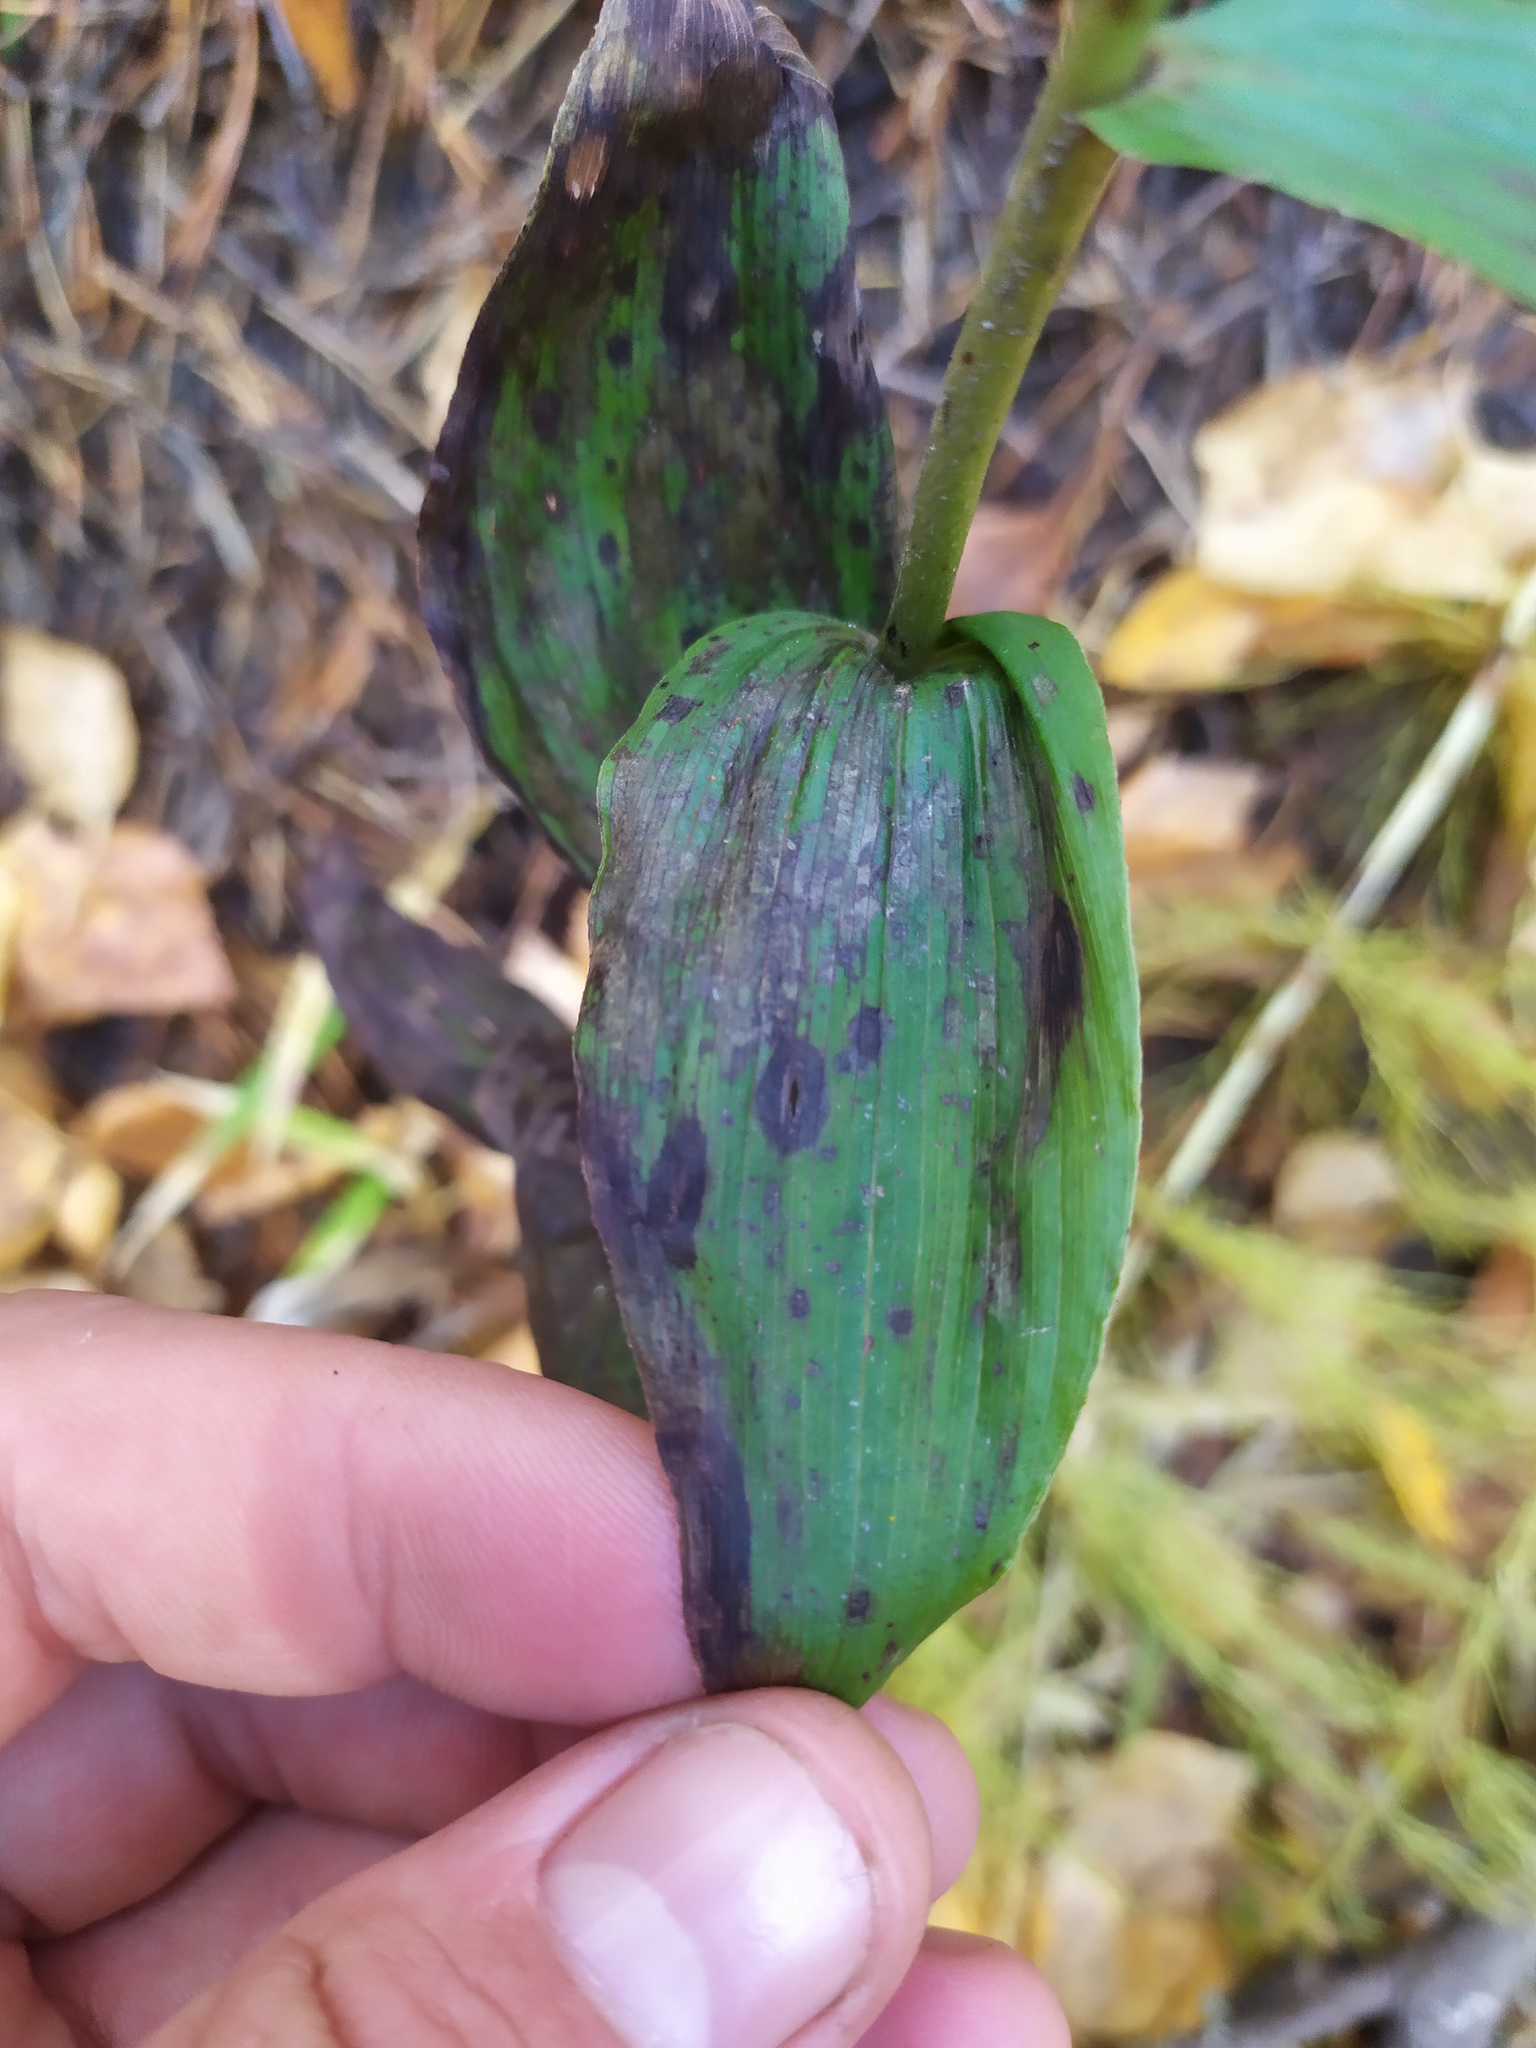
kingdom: Plantae
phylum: Tracheophyta
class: Liliopsida
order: Asparagales
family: Orchidaceae
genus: Epipactis
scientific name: Epipactis helleborine
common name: Broad-leaved helleborine
